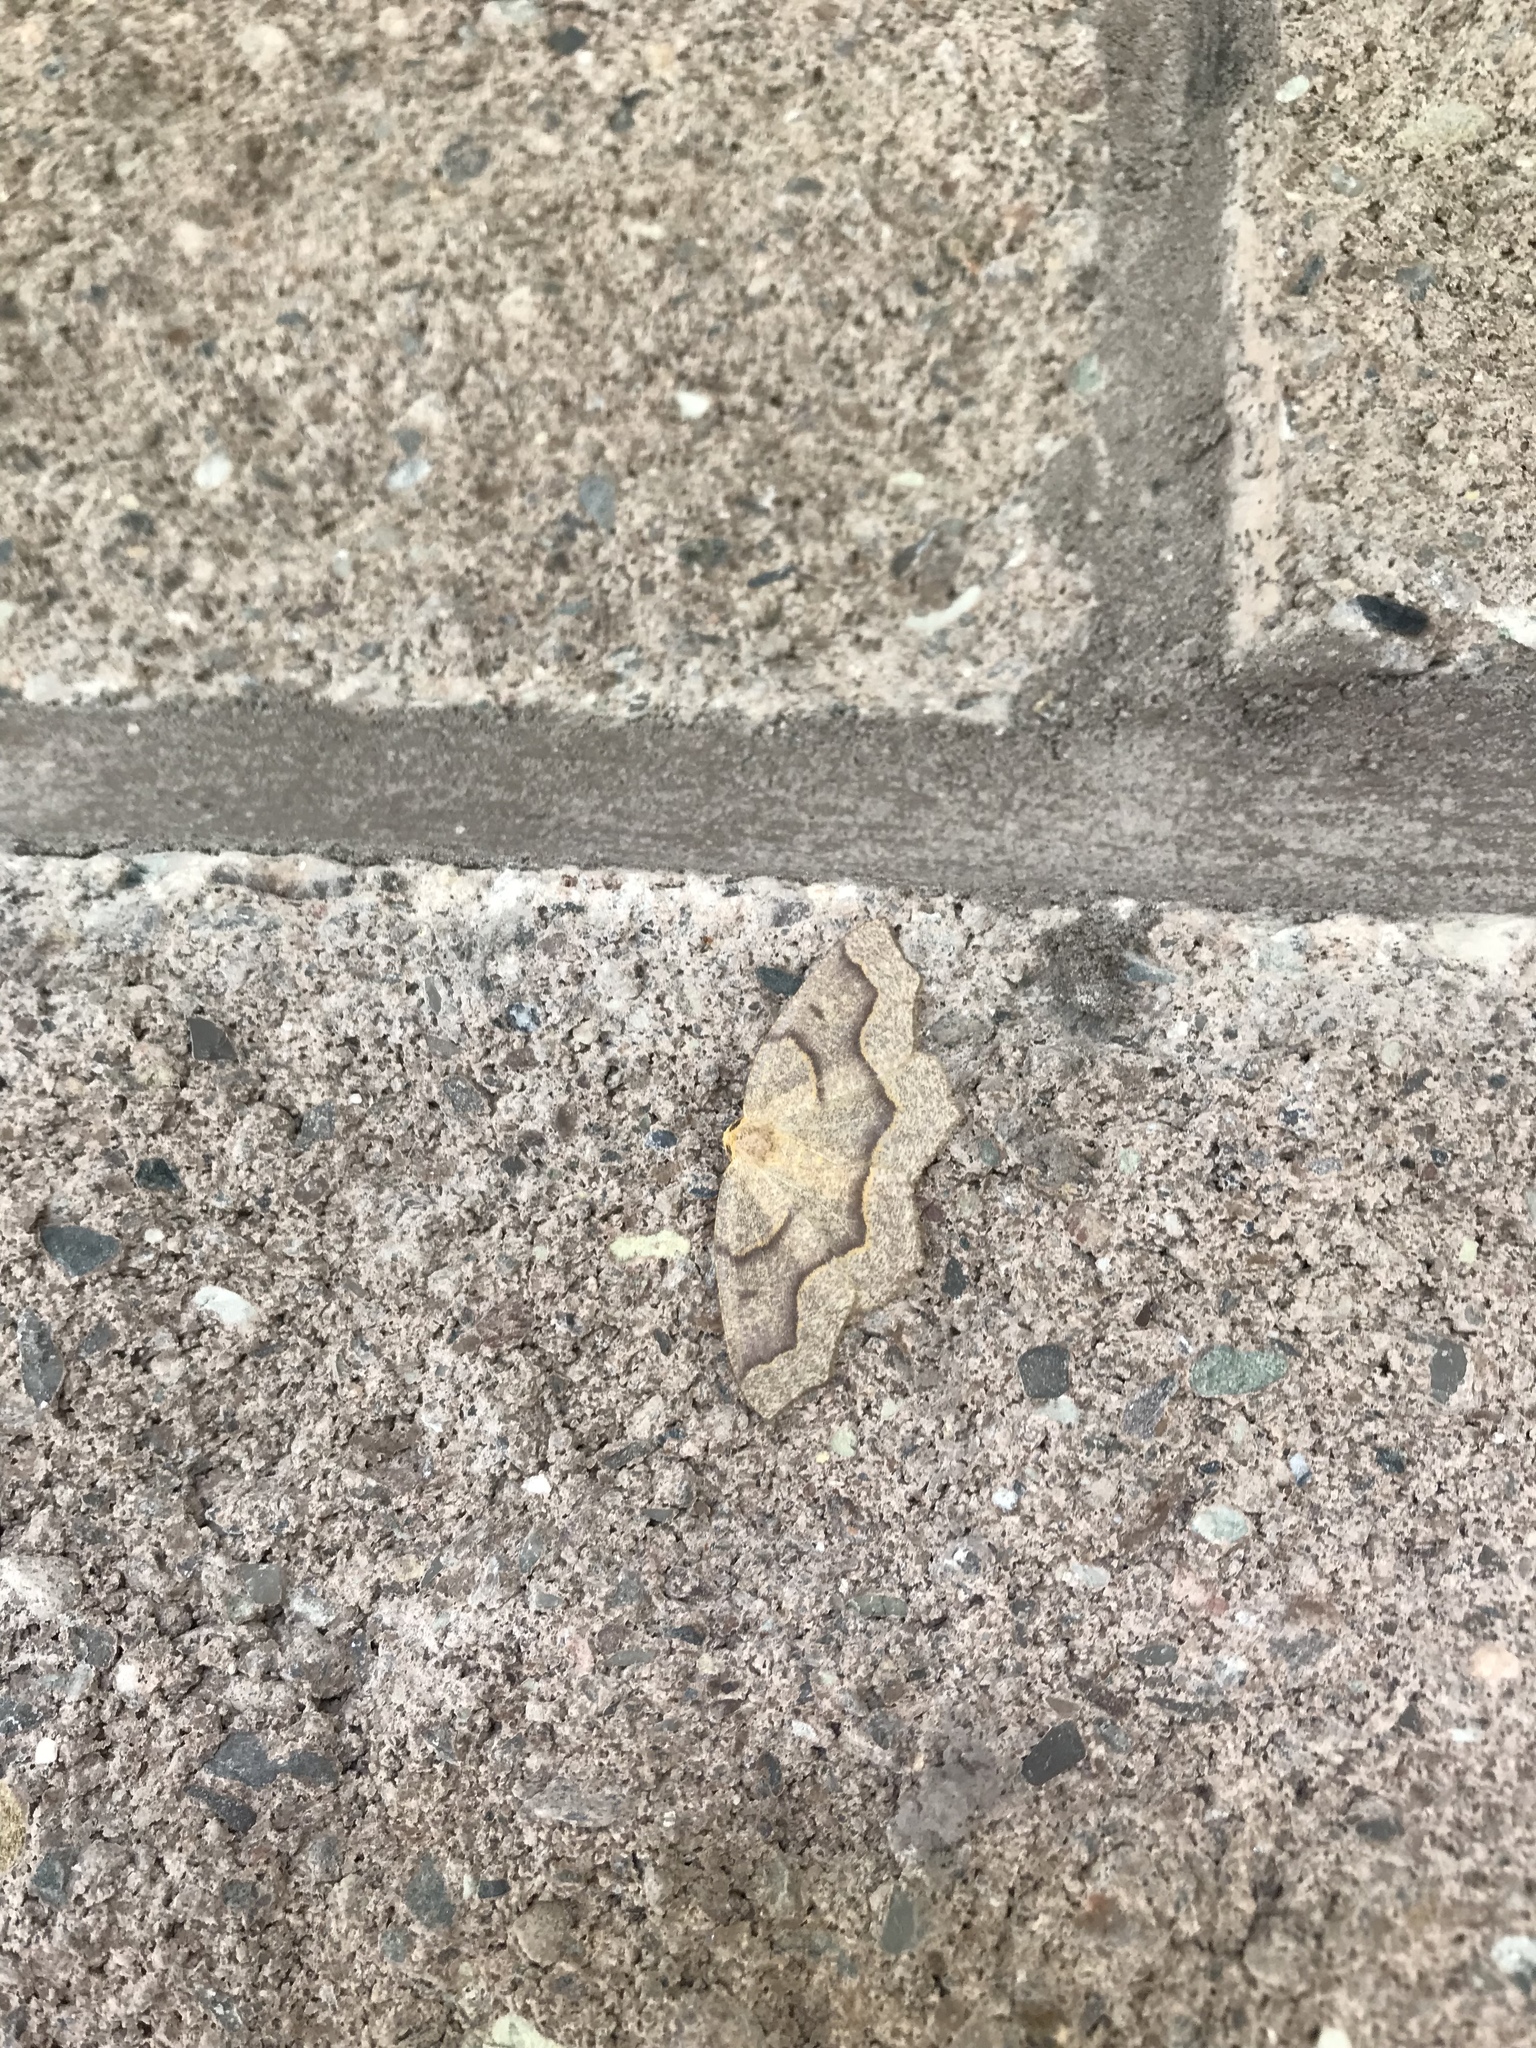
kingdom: Animalia
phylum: Arthropoda
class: Insecta
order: Lepidoptera
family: Geometridae
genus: Lambdina
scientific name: Lambdina fiscellaria
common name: Hemlock looper
